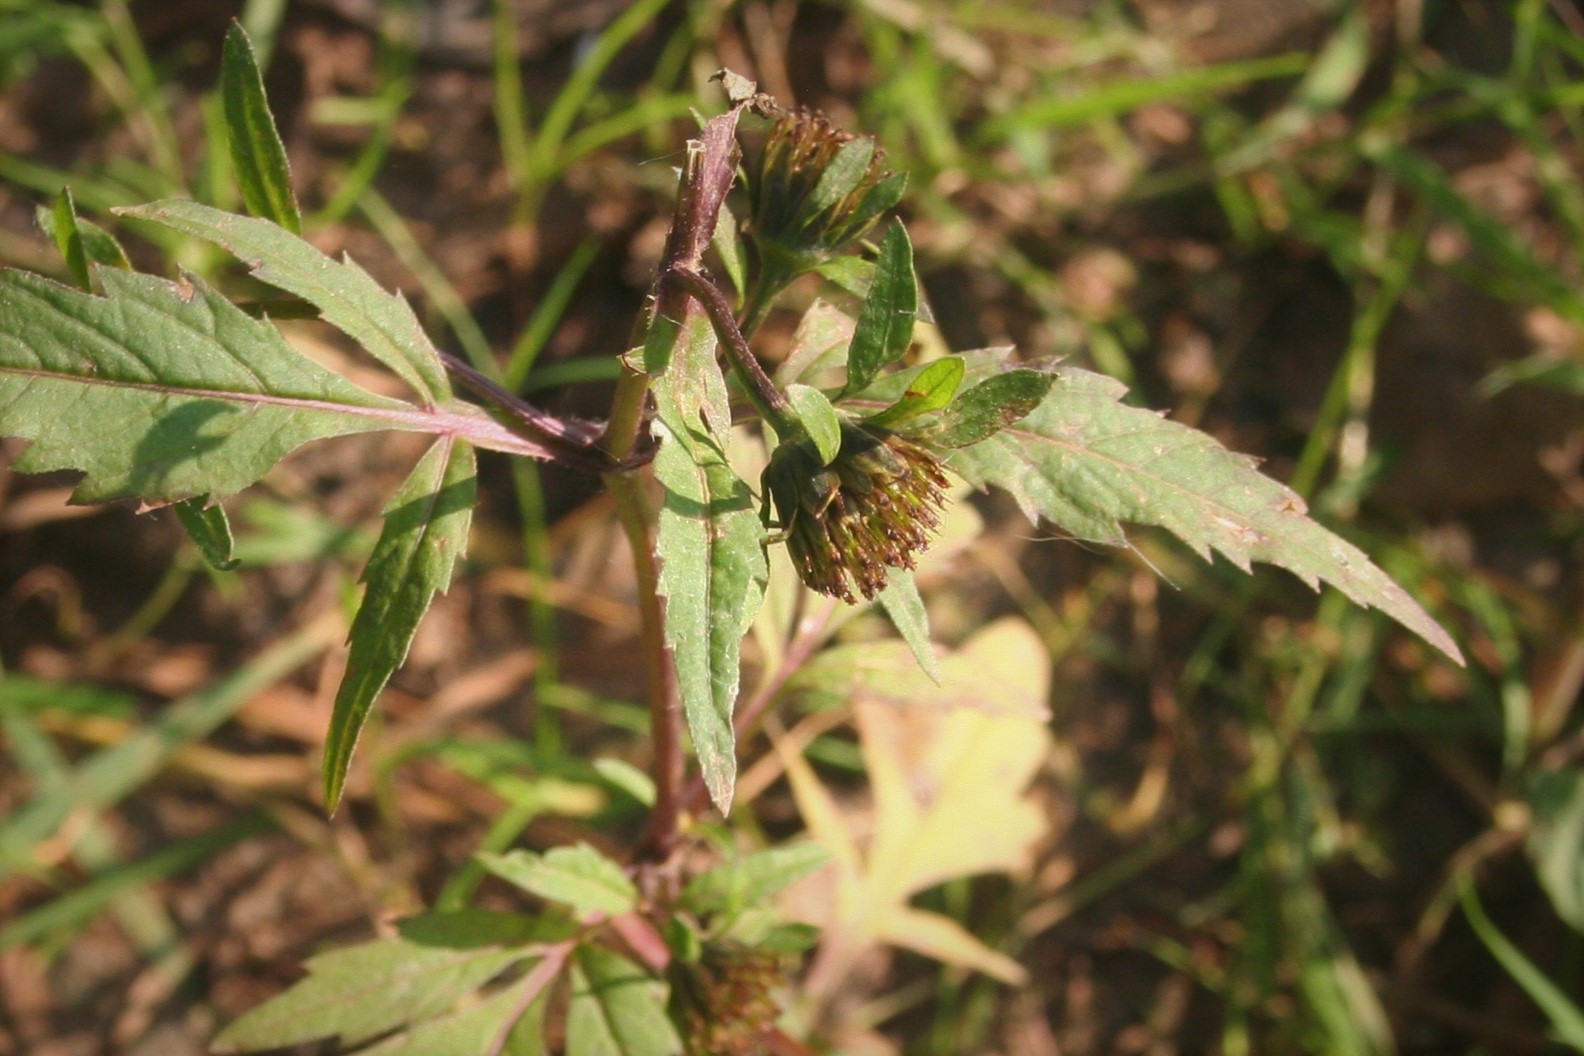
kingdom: Plantae
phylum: Tracheophyta
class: Magnoliopsida
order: Asterales
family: Asteraceae
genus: Bidens
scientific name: Bidens tripartita
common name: Trifid bur-marigold
